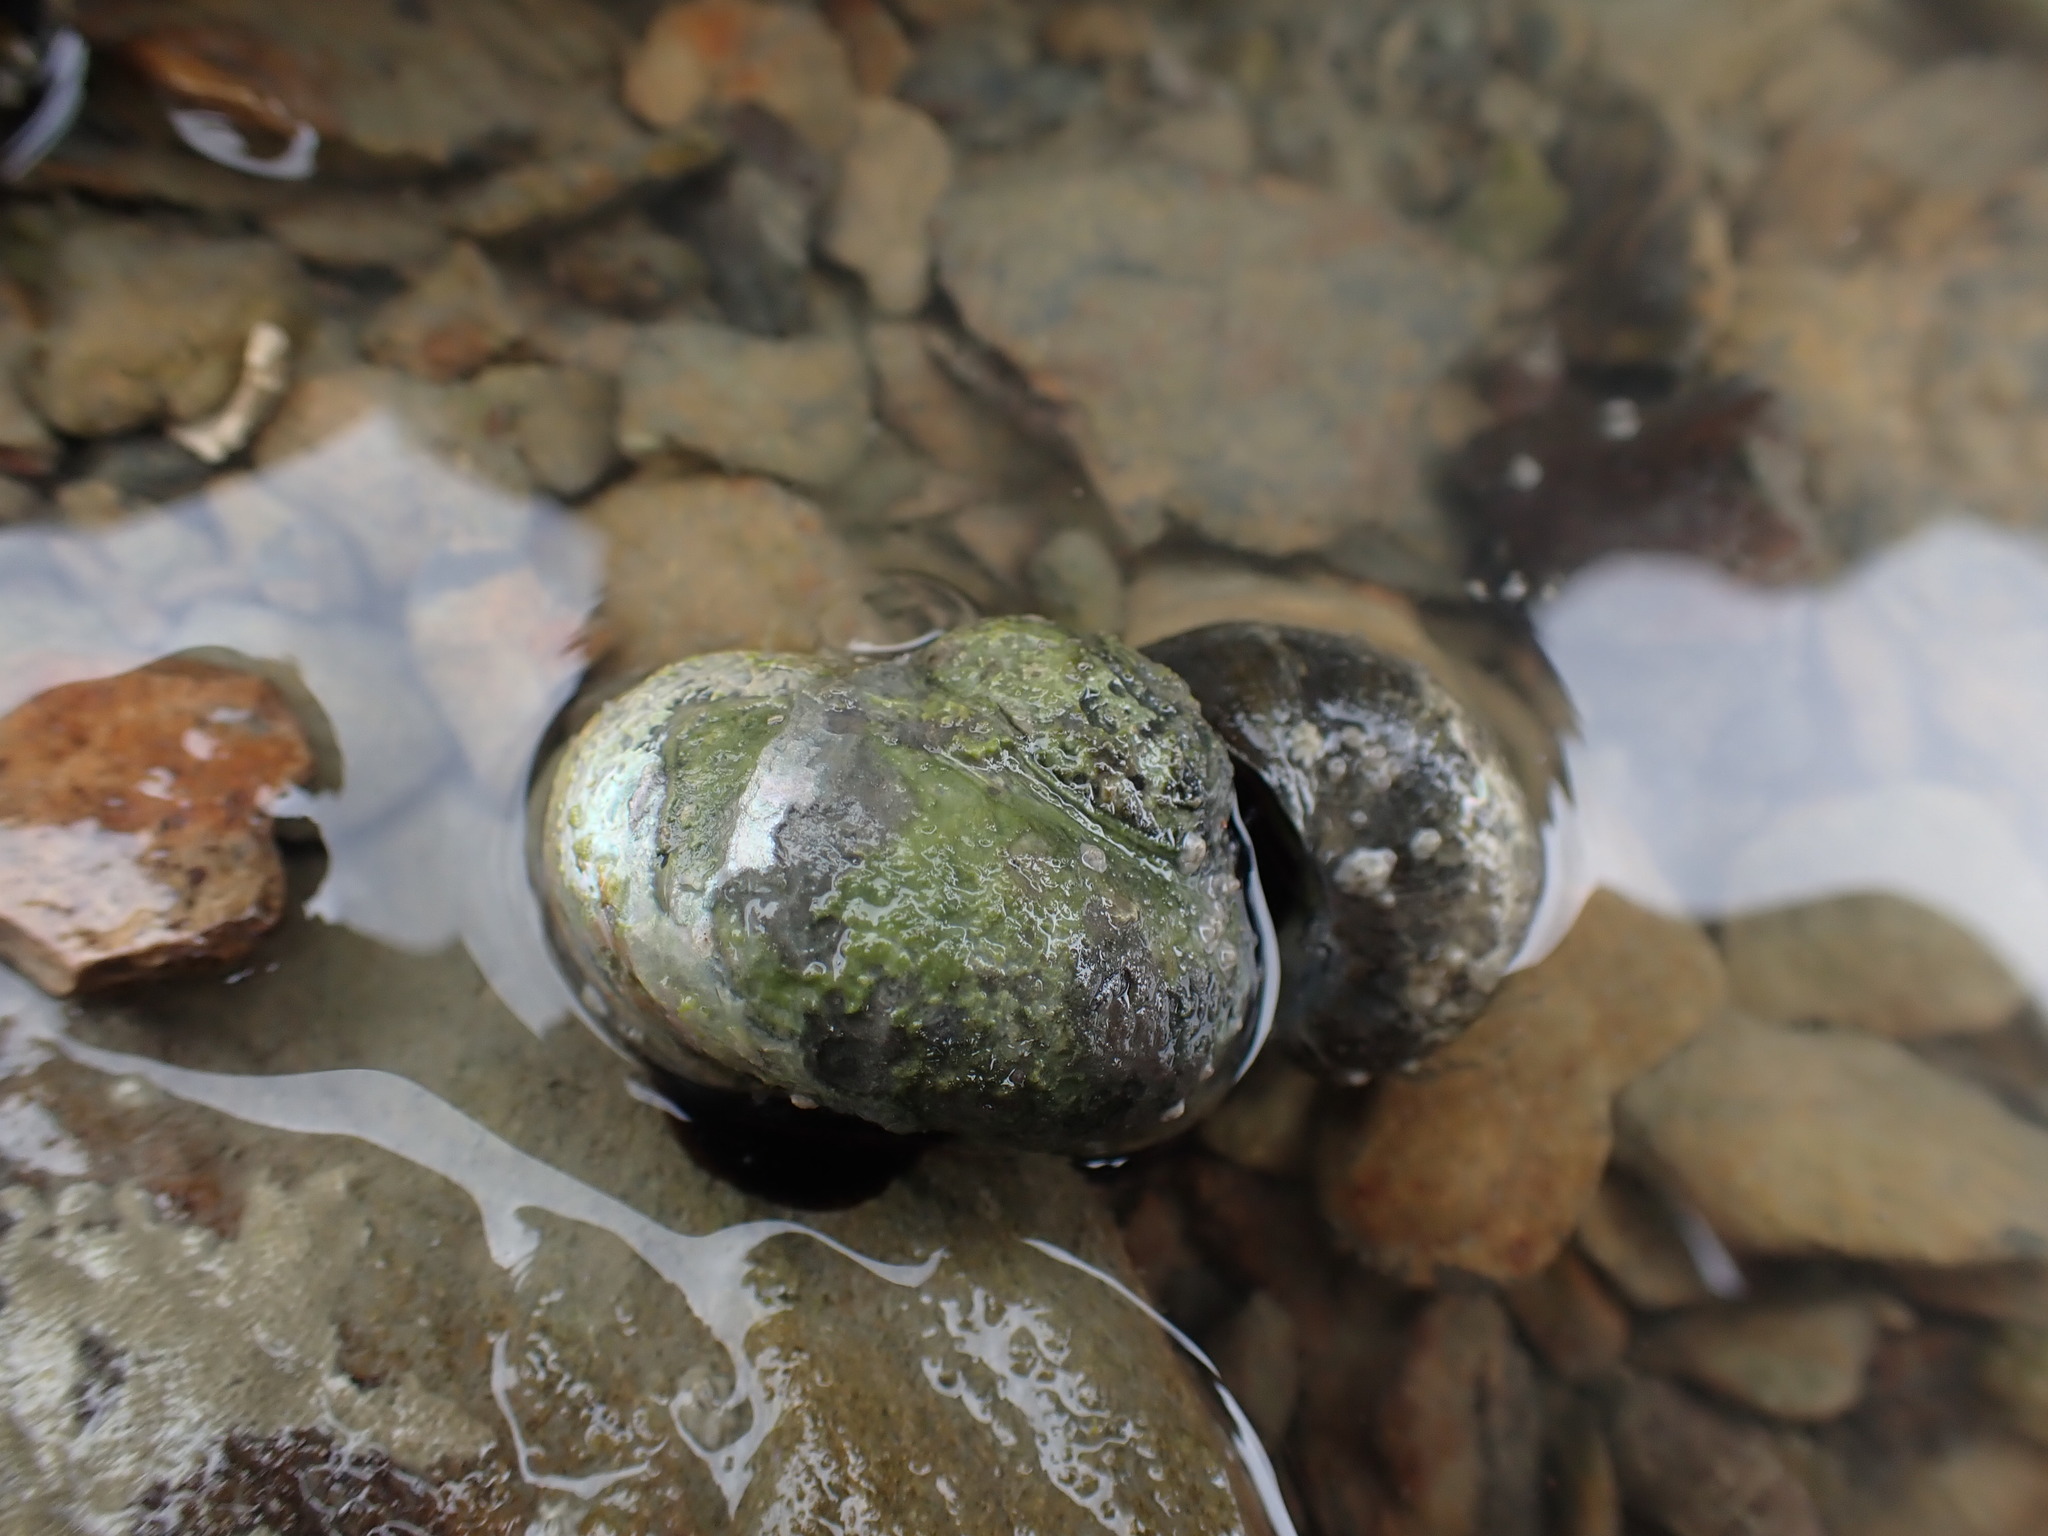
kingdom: Animalia
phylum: Mollusca
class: Gastropoda
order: Trochida
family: Turbinidae
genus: Lunella
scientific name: Lunella smaragda
